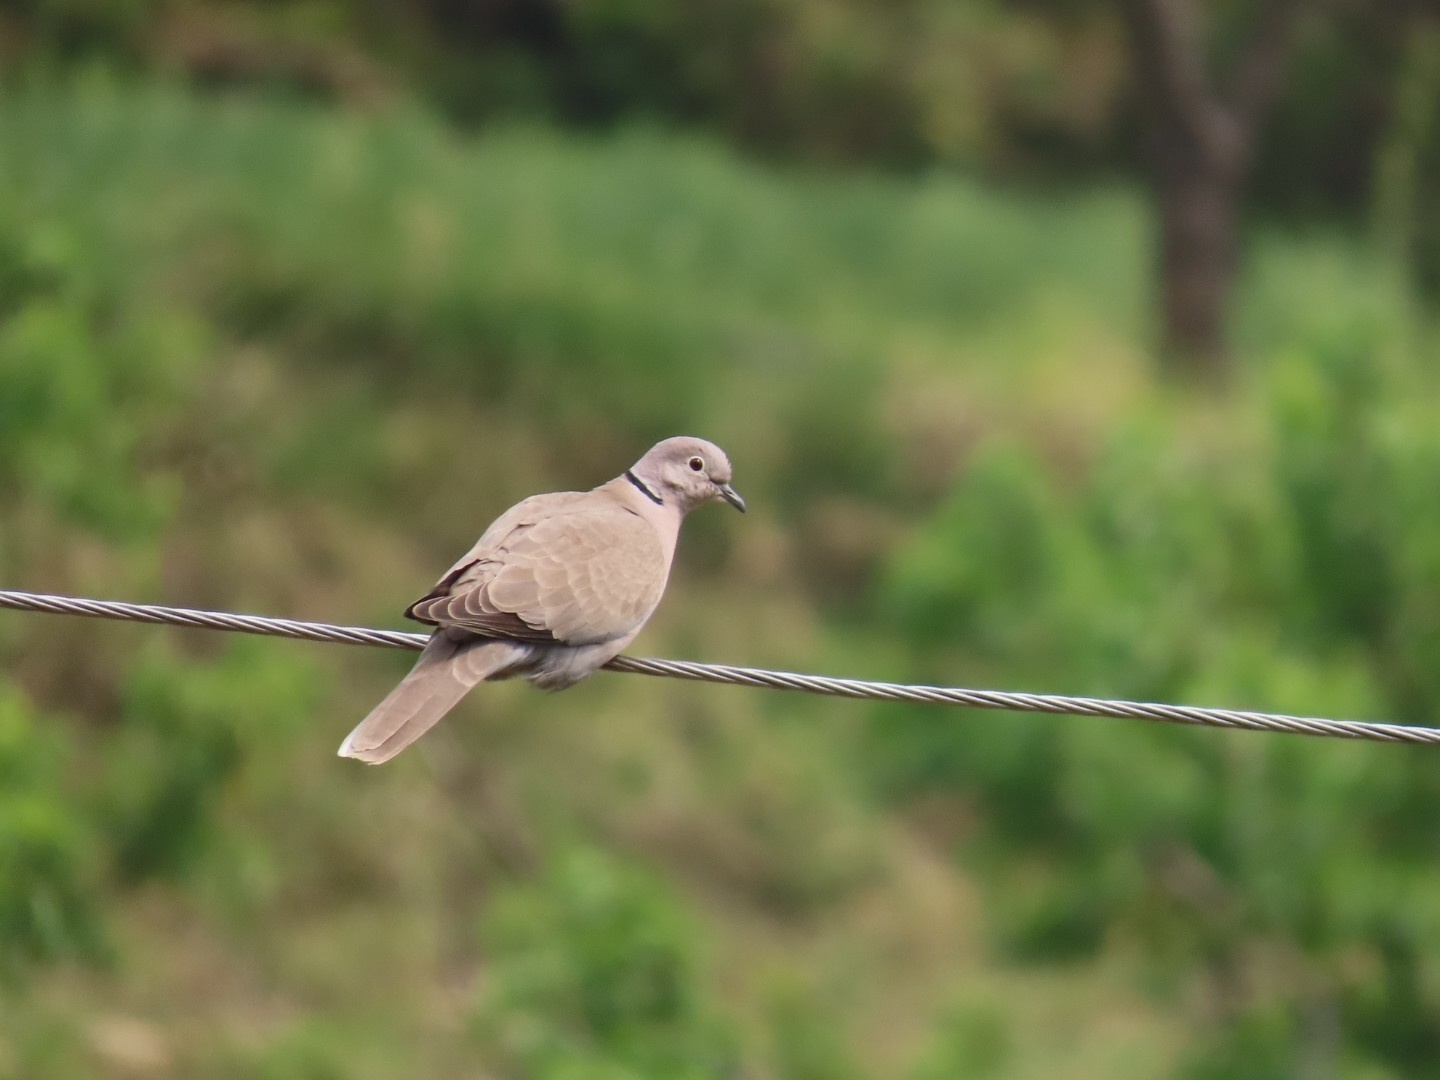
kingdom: Animalia
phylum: Chordata
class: Aves
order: Columbiformes
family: Columbidae
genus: Streptopelia
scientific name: Streptopelia decaocto
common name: Eurasian collared dove
